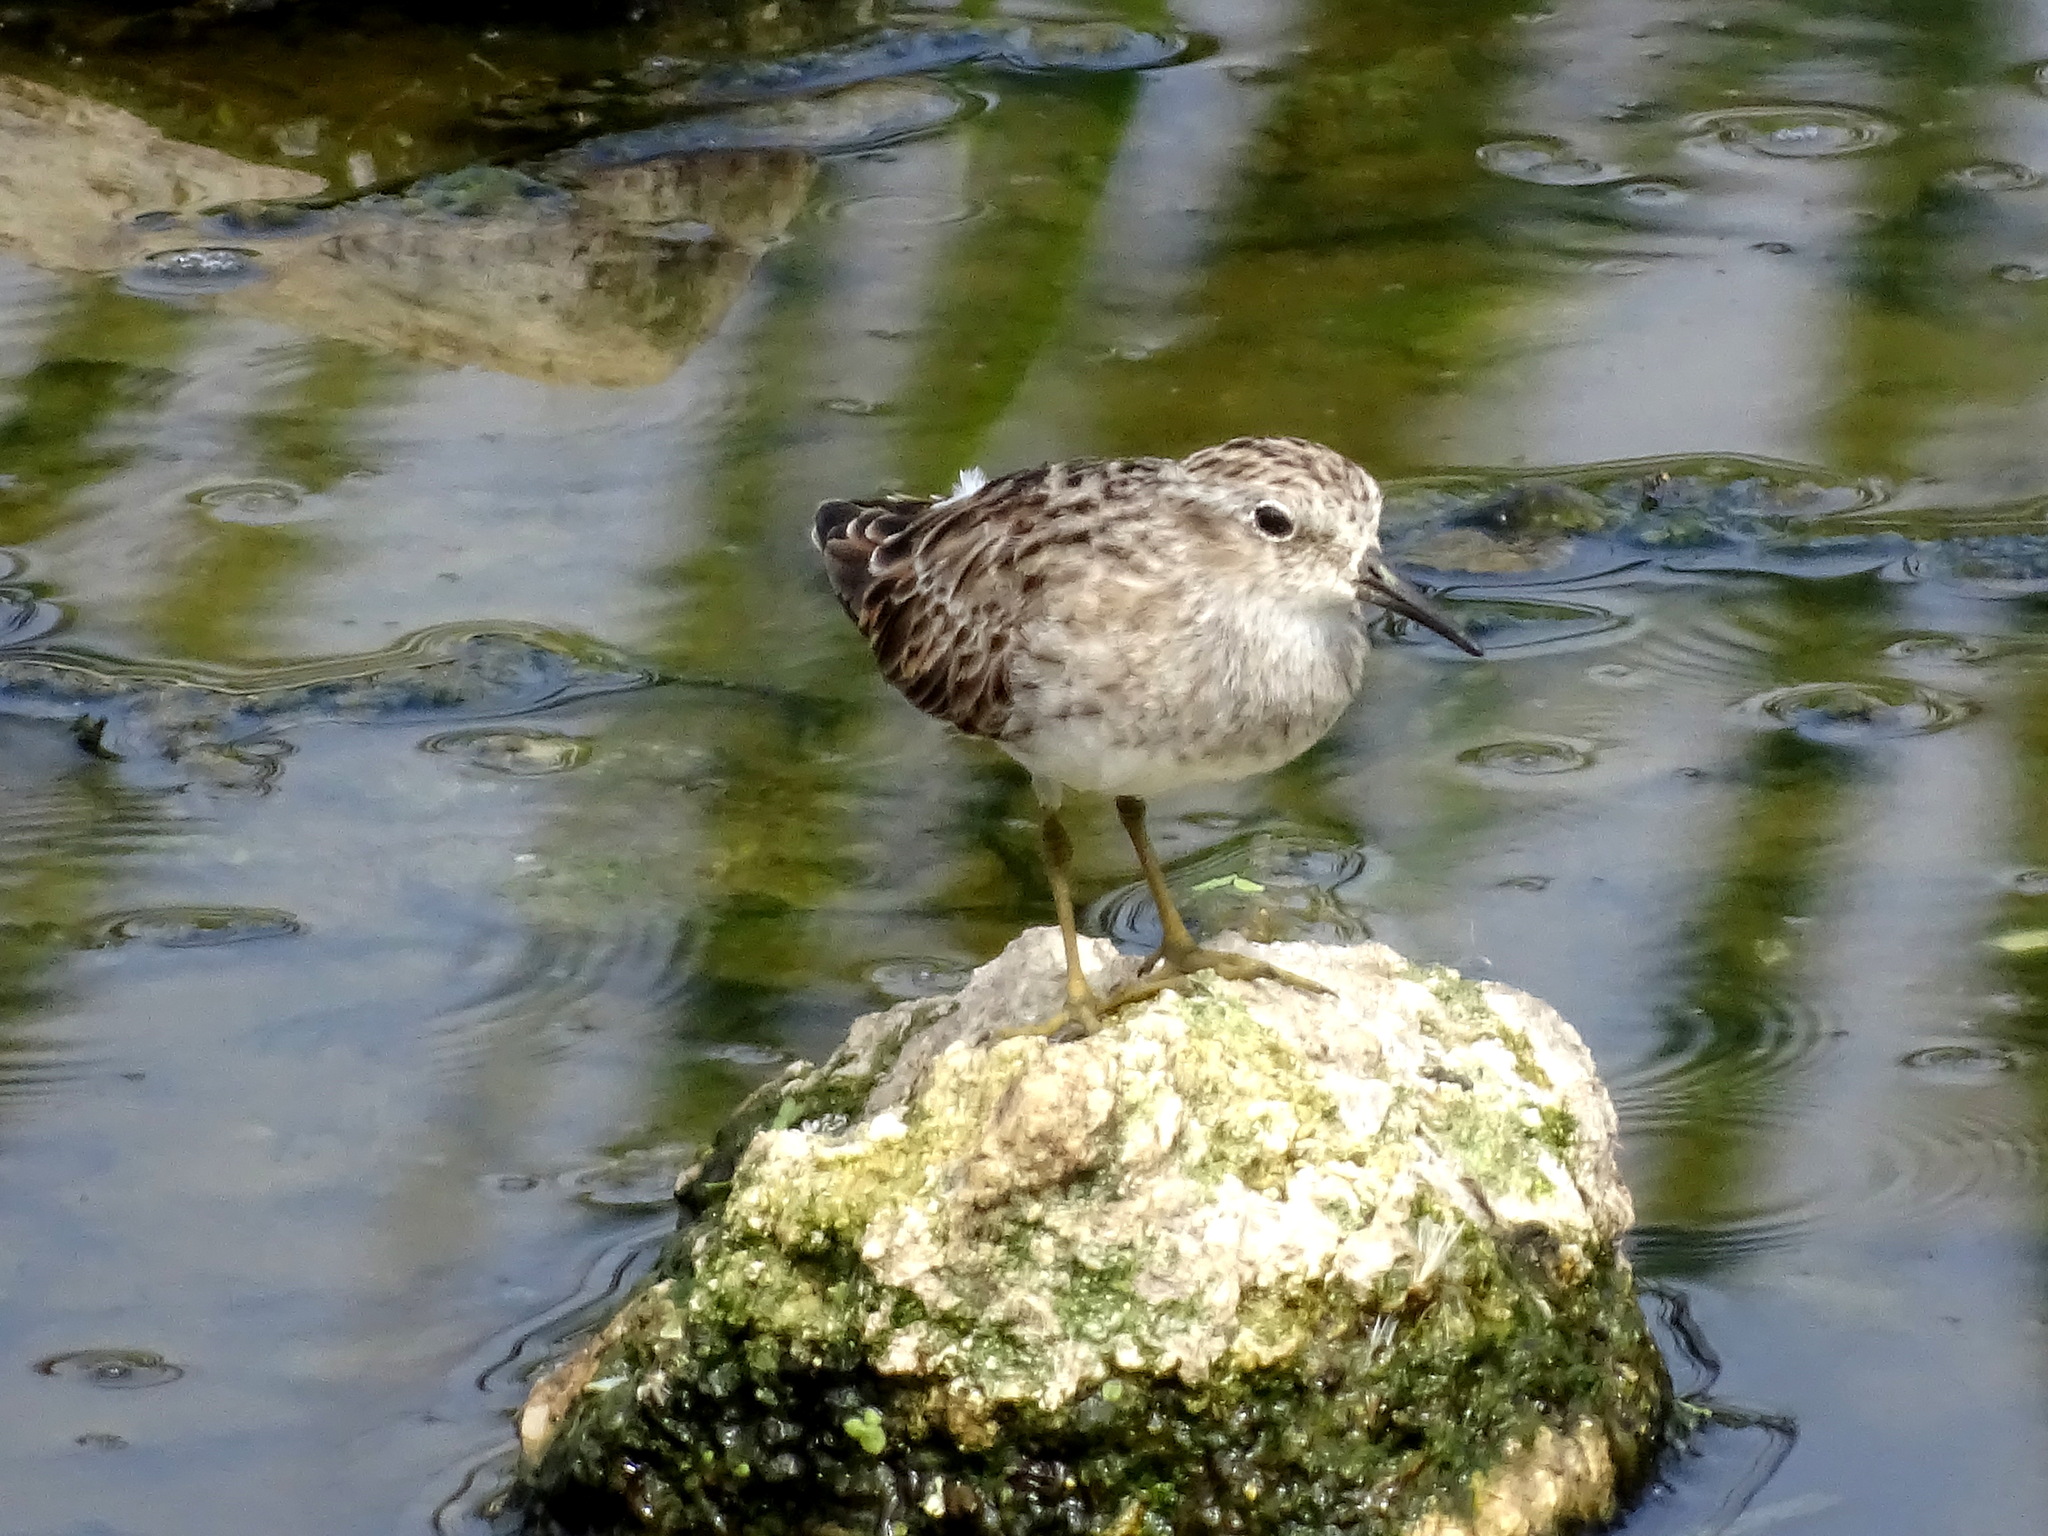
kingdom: Animalia
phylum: Chordata
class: Aves
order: Charadriiformes
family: Scolopacidae
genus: Calidris
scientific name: Calidris minutilla
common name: Least sandpiper
